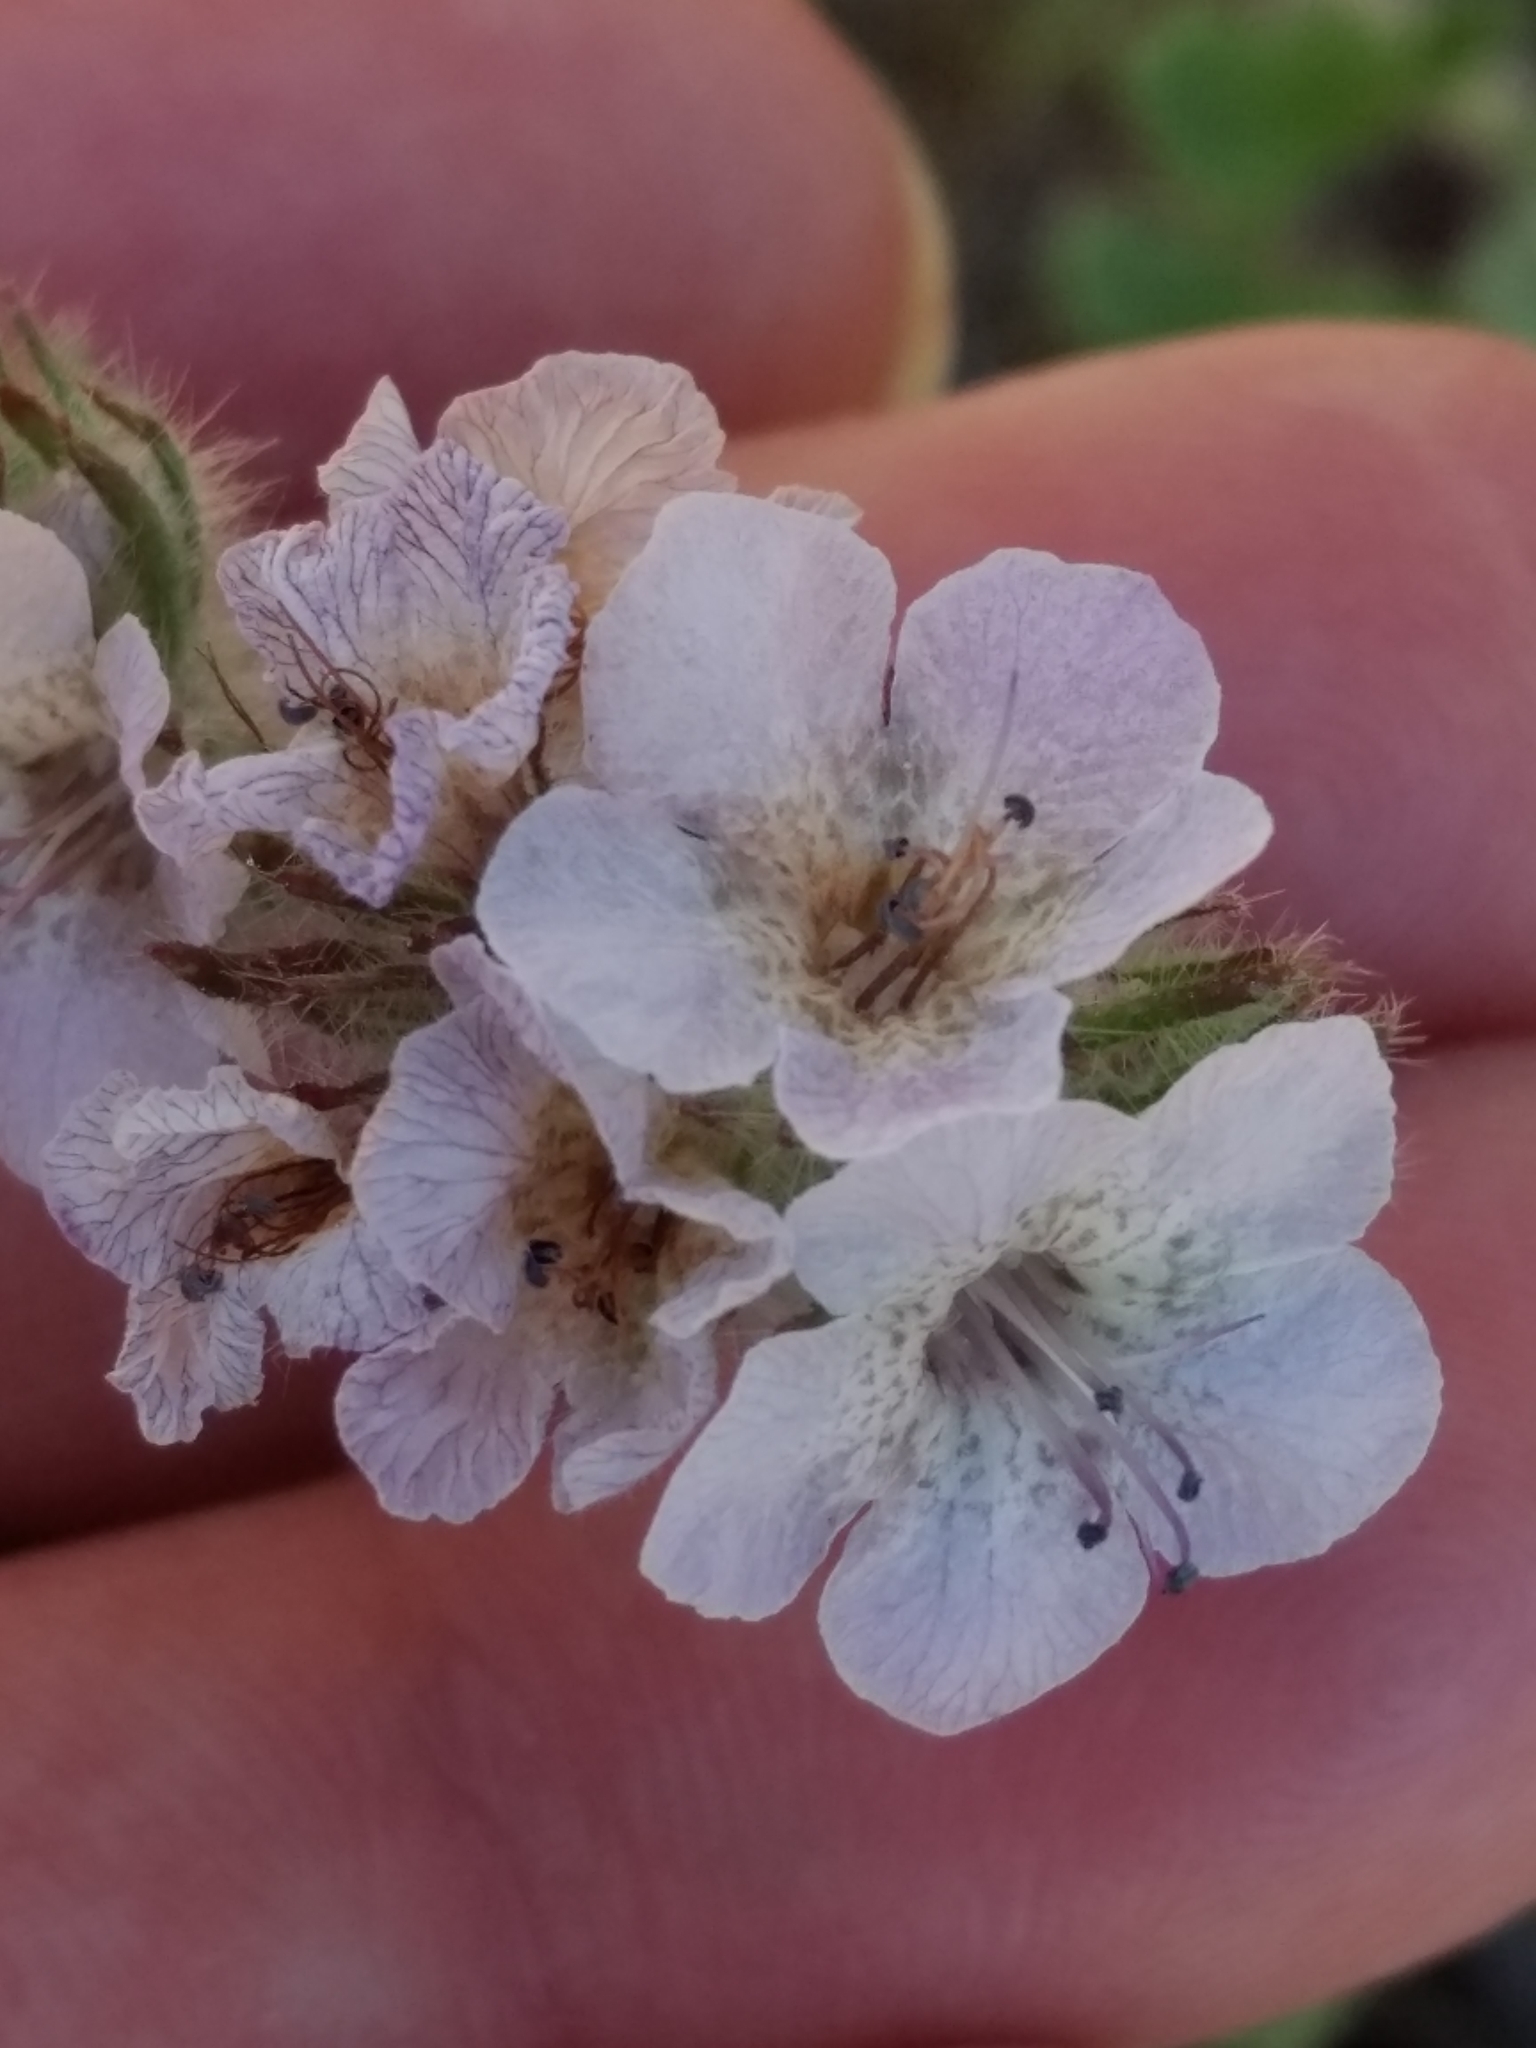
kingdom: Plantae
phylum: Tracheophyta
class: Magnoliopsida
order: Boraginales
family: Hydrophyllaceae
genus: Phacelia
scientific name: Phacelia cicutaria
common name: Caterpillar phacelia
